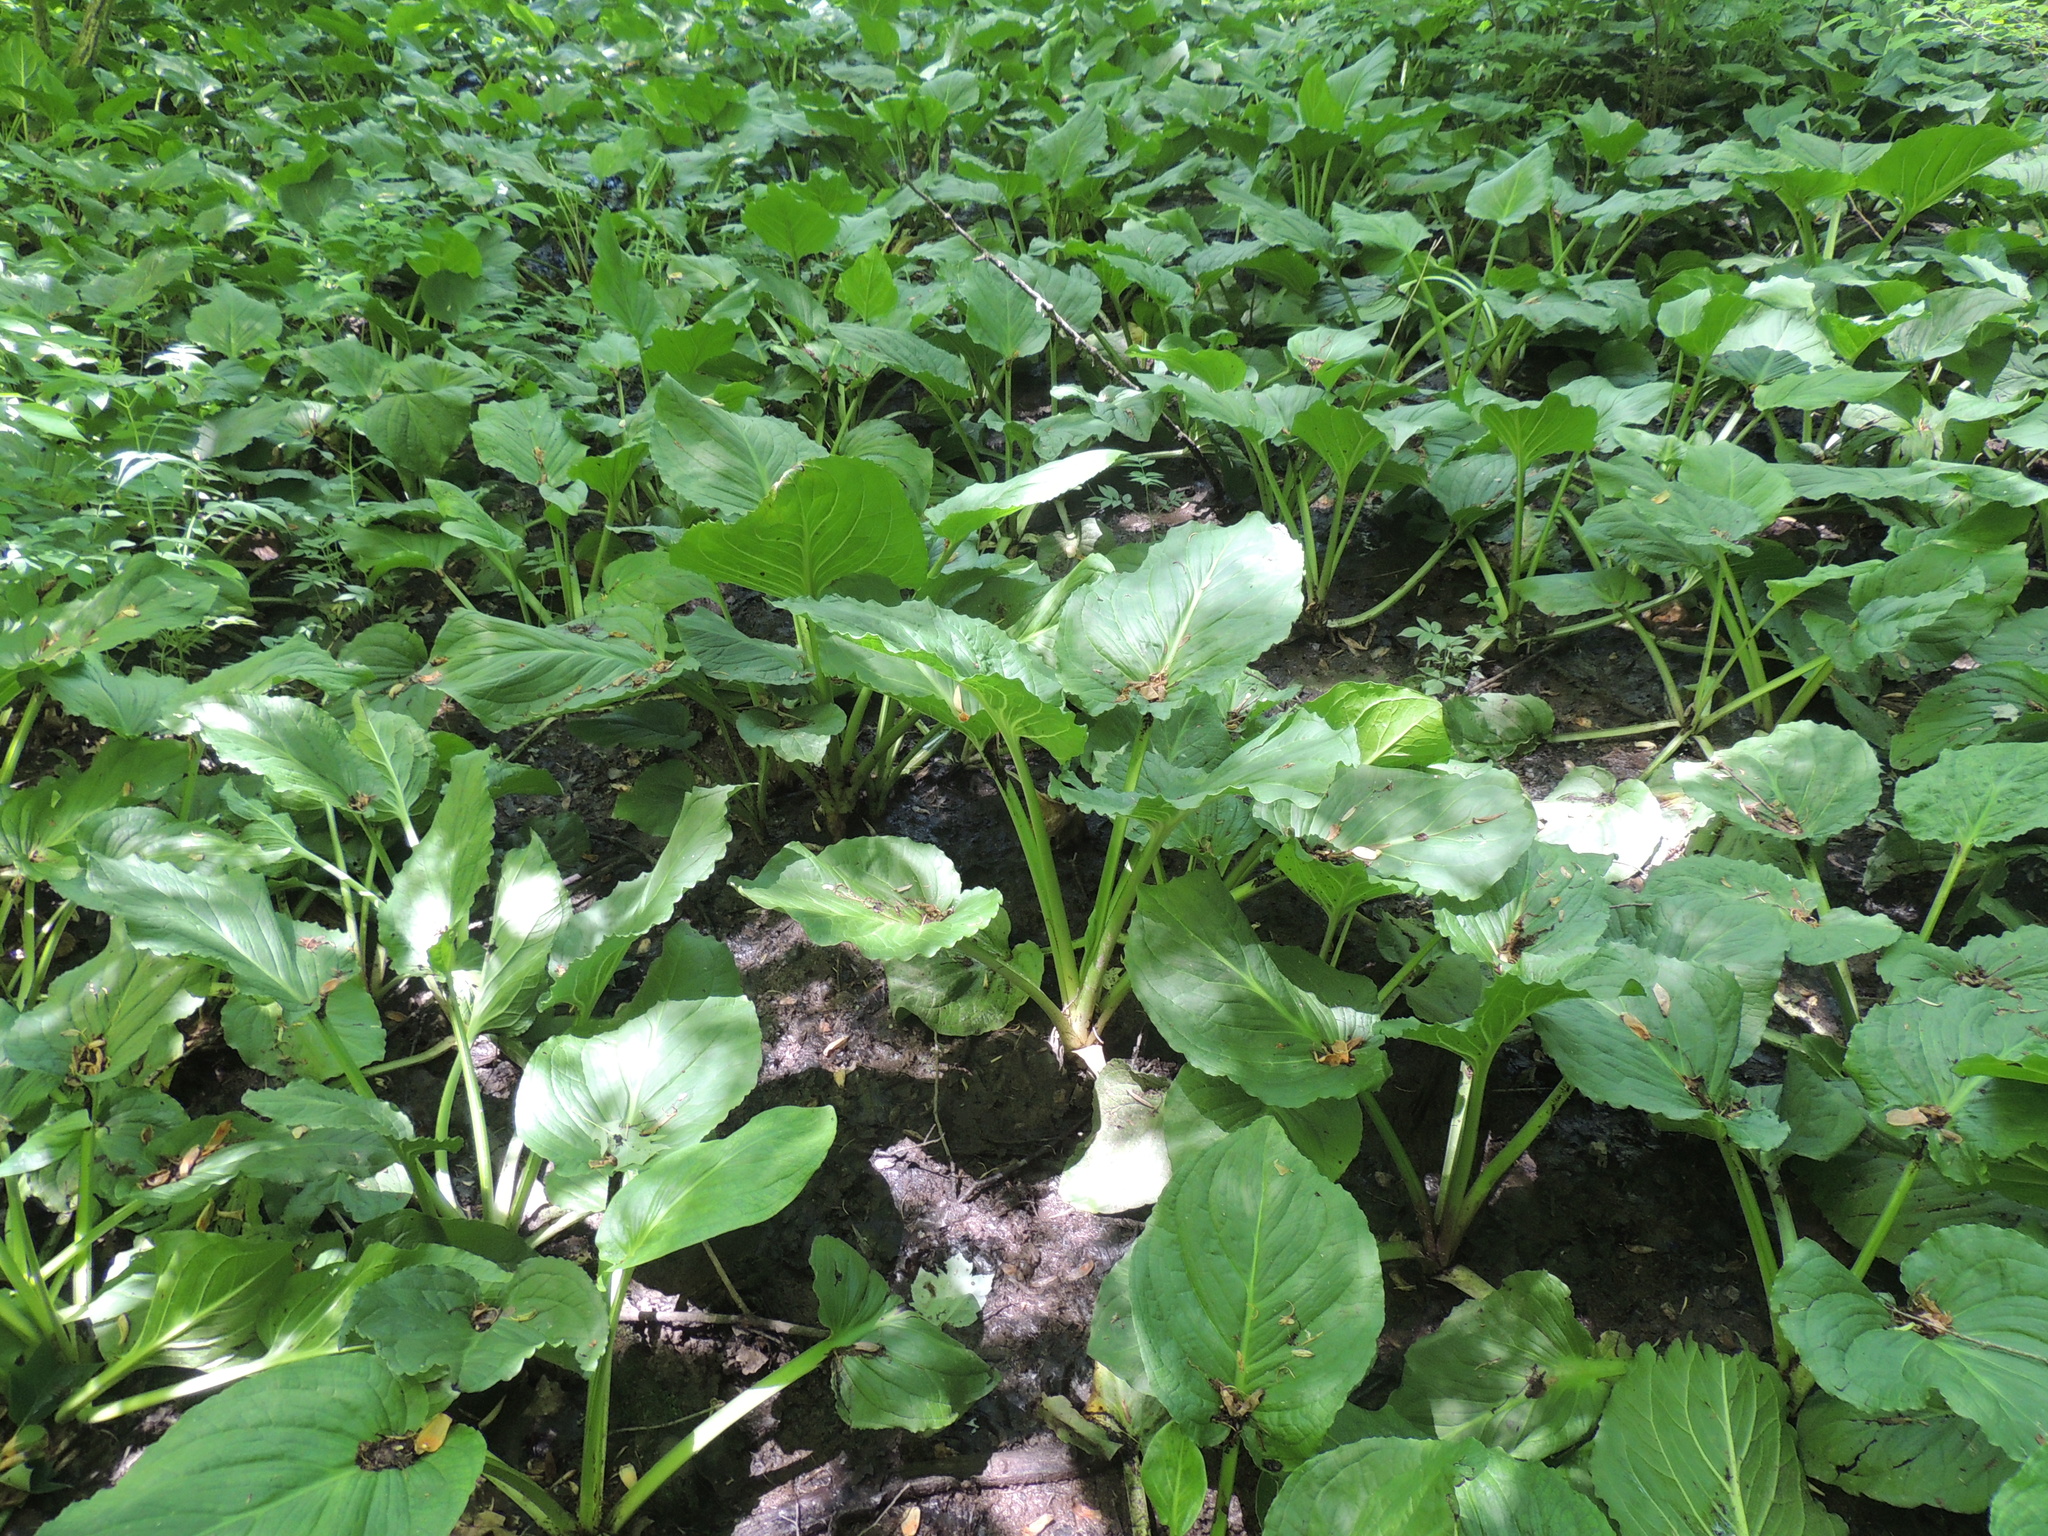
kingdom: Plantae
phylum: Tracheophyta
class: Liliopsida
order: Alismatales
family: Araceae
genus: Symplocarpus
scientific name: Symplocarpus foetidus
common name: Eastern skunk cabbage
